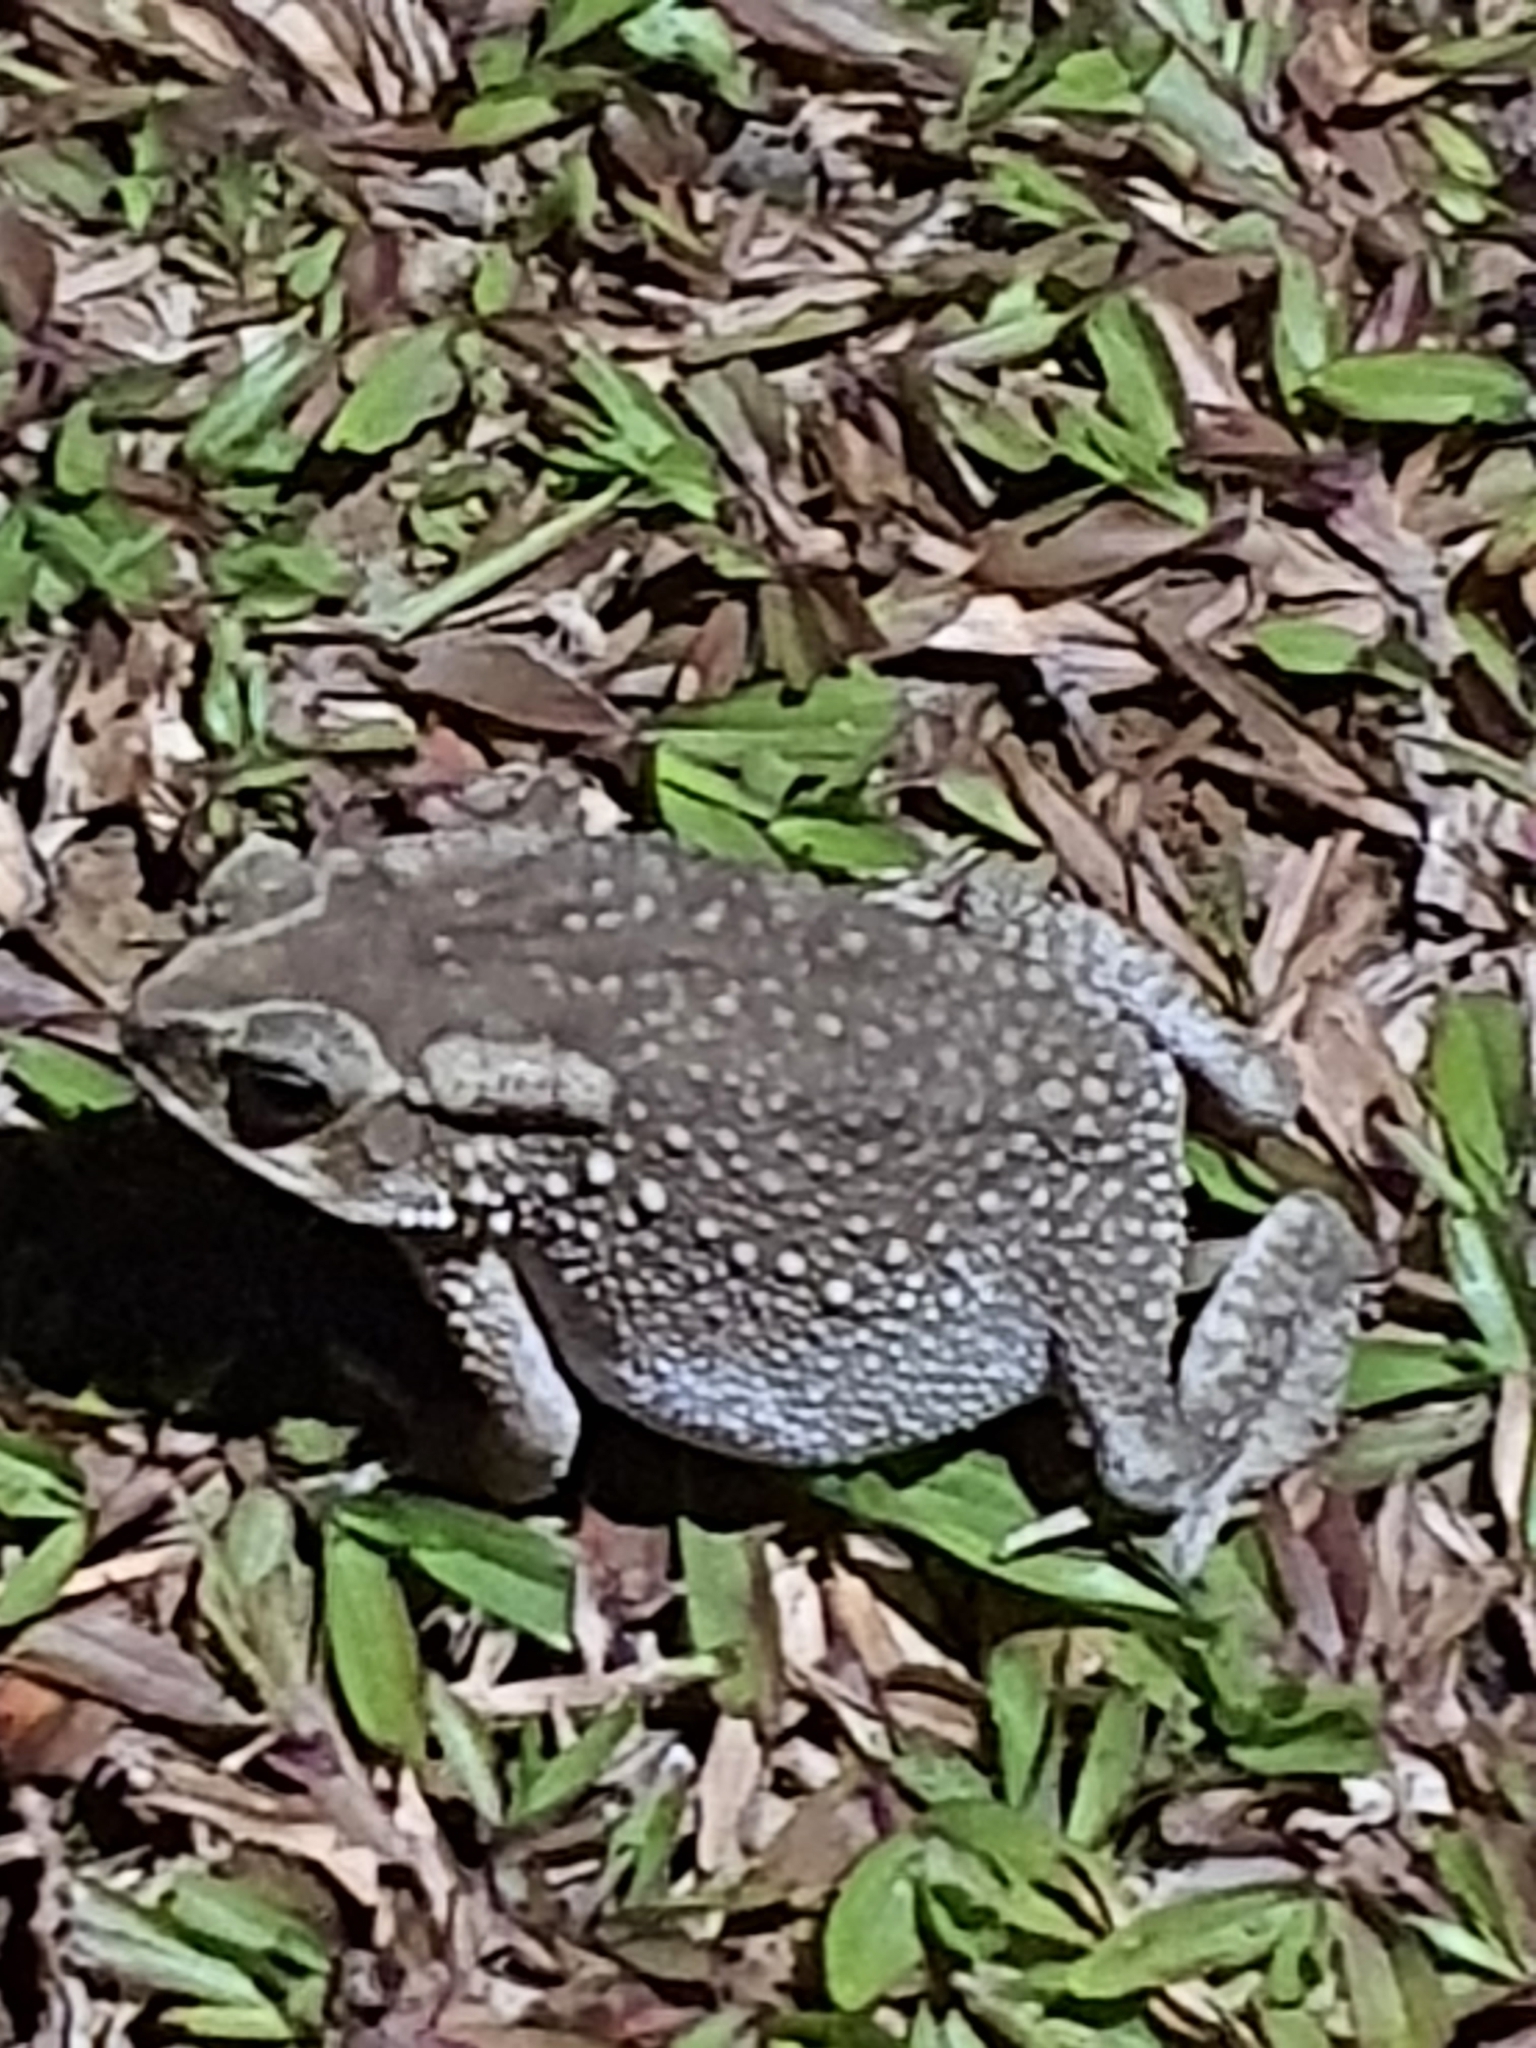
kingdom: Animalia
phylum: Chordata
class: Amphibia
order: Anura
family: Bufonidae
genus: Duttaphrynus
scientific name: Duttaphrynus melanostictus
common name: Common sunda toad
